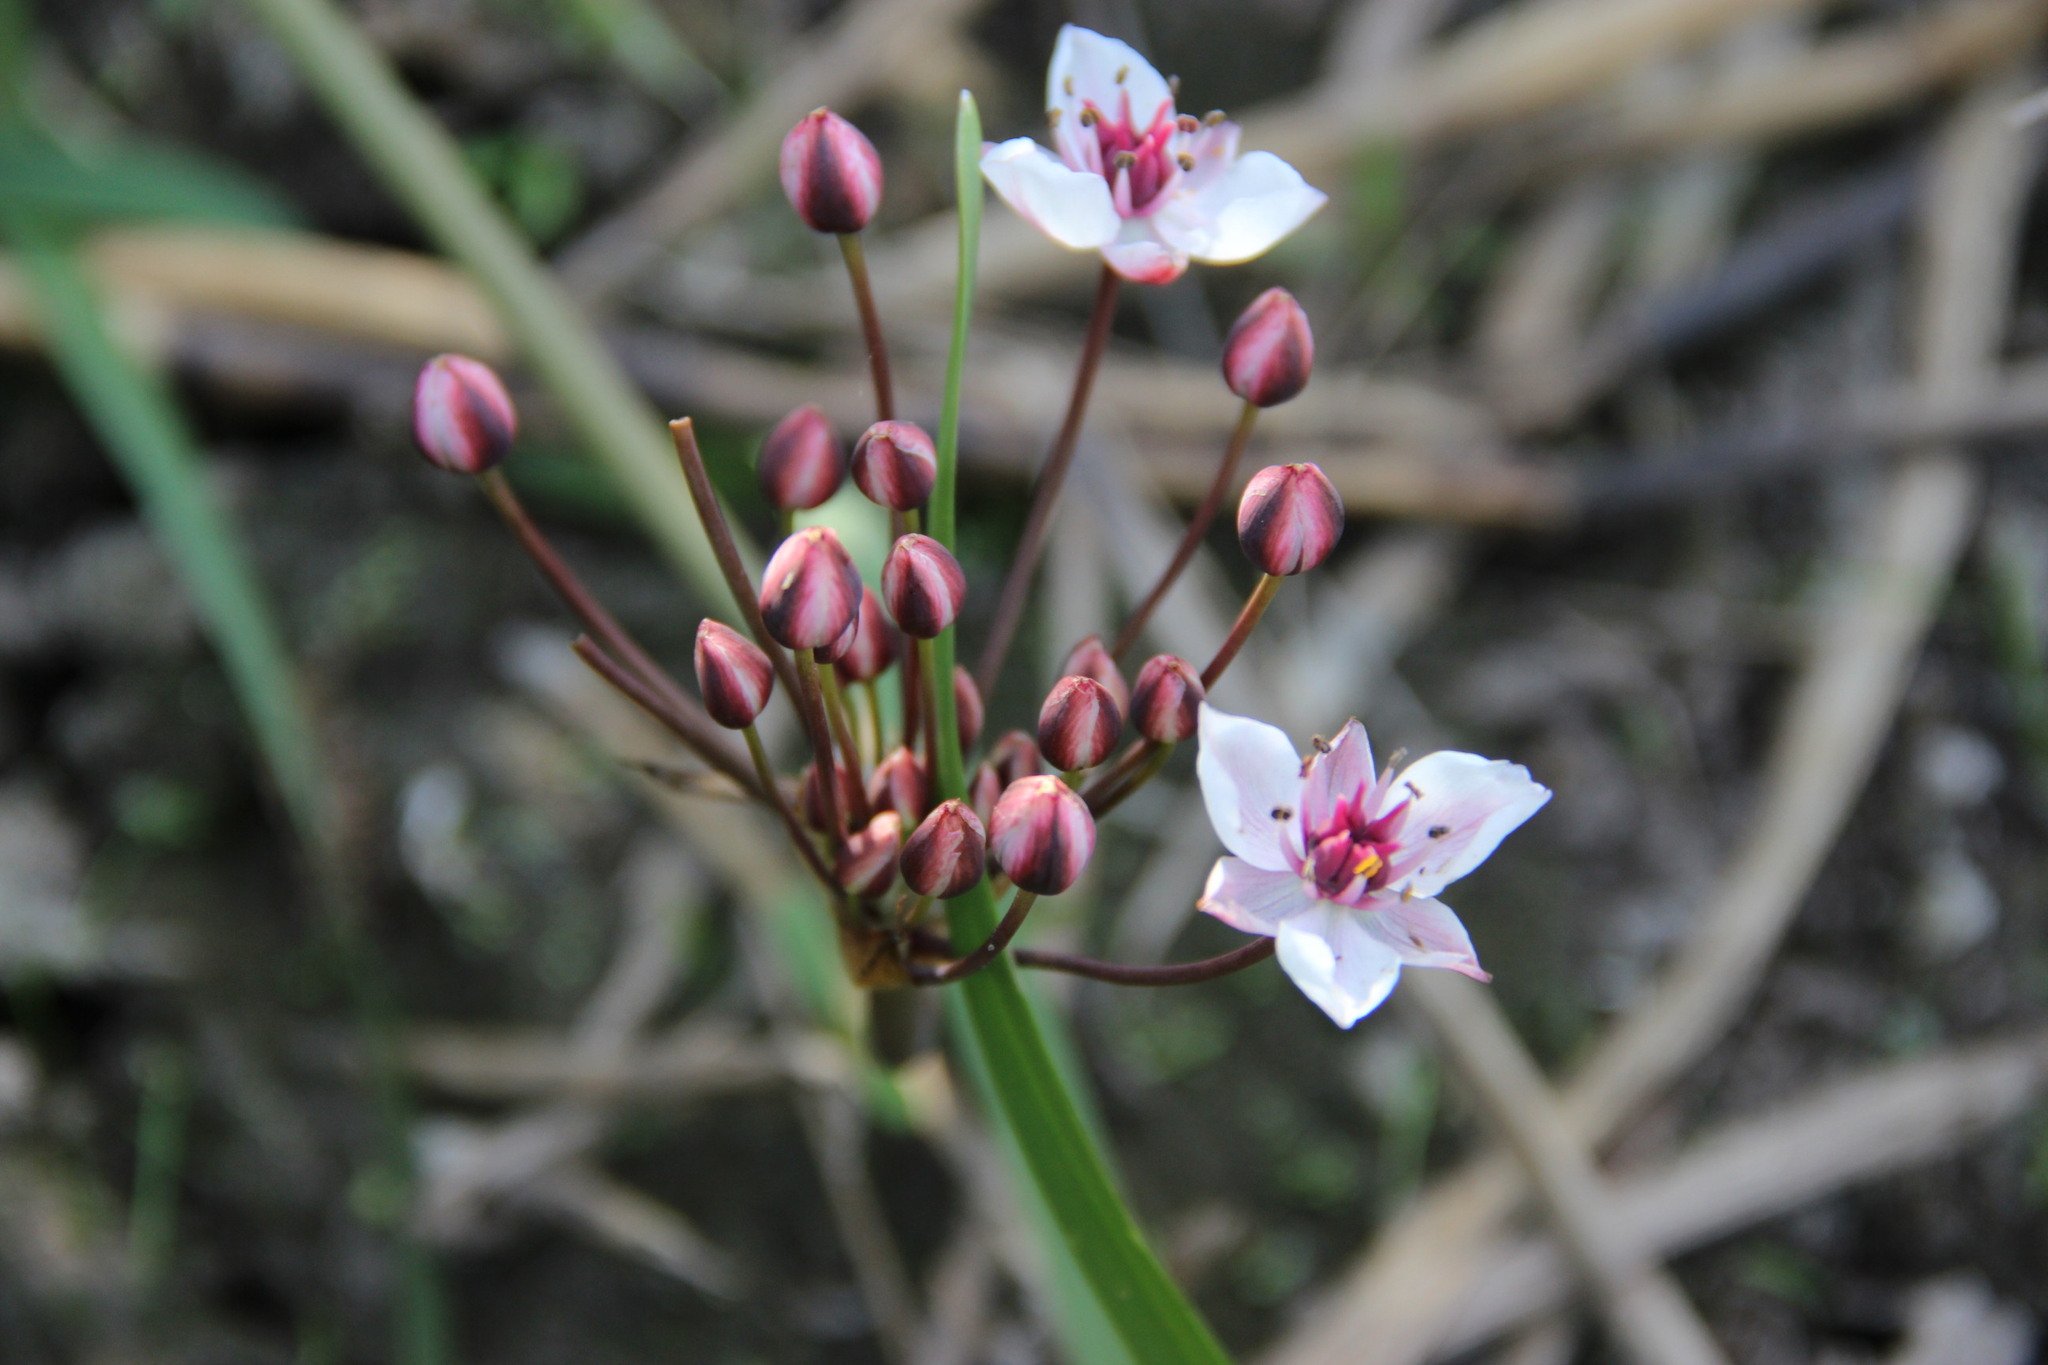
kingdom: Plantae
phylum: Tracheophyta
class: Liliopsida
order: Alismatales
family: Butomaceae
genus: Butomus
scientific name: Butomus umbellatus
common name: Flowering-rush
